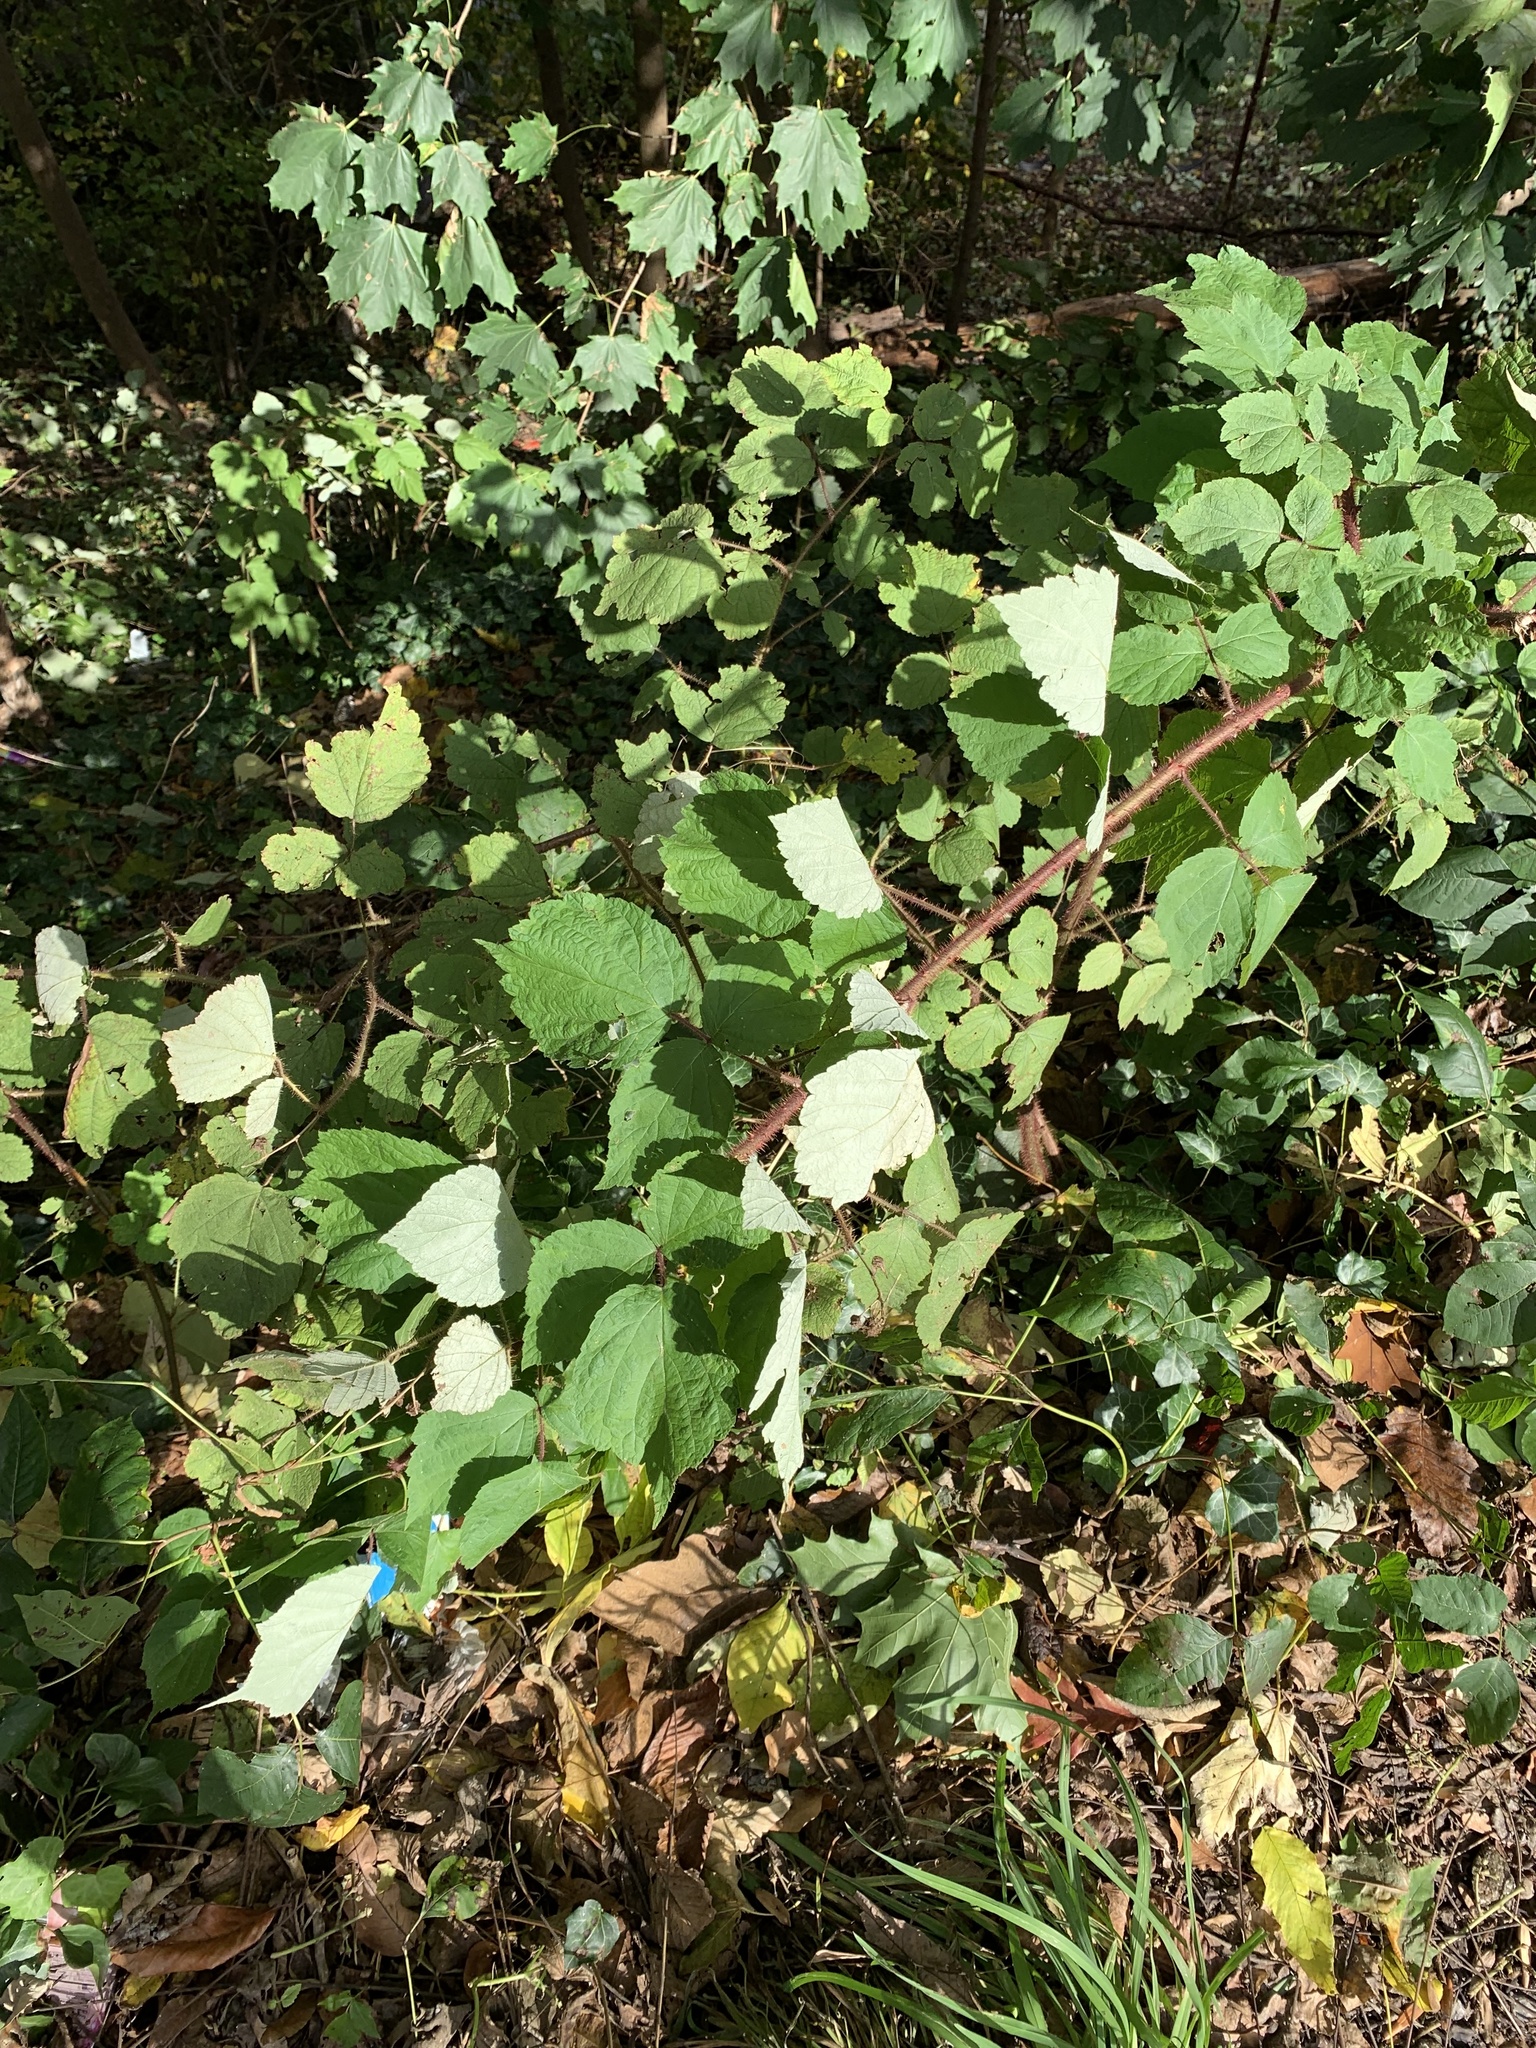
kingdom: Plantae
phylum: Tracheophyta
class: Magnoliopsida
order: Rosales
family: Rosaceae
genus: Rubus
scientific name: Rubus phoenicolasius
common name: Japanese wineberry
